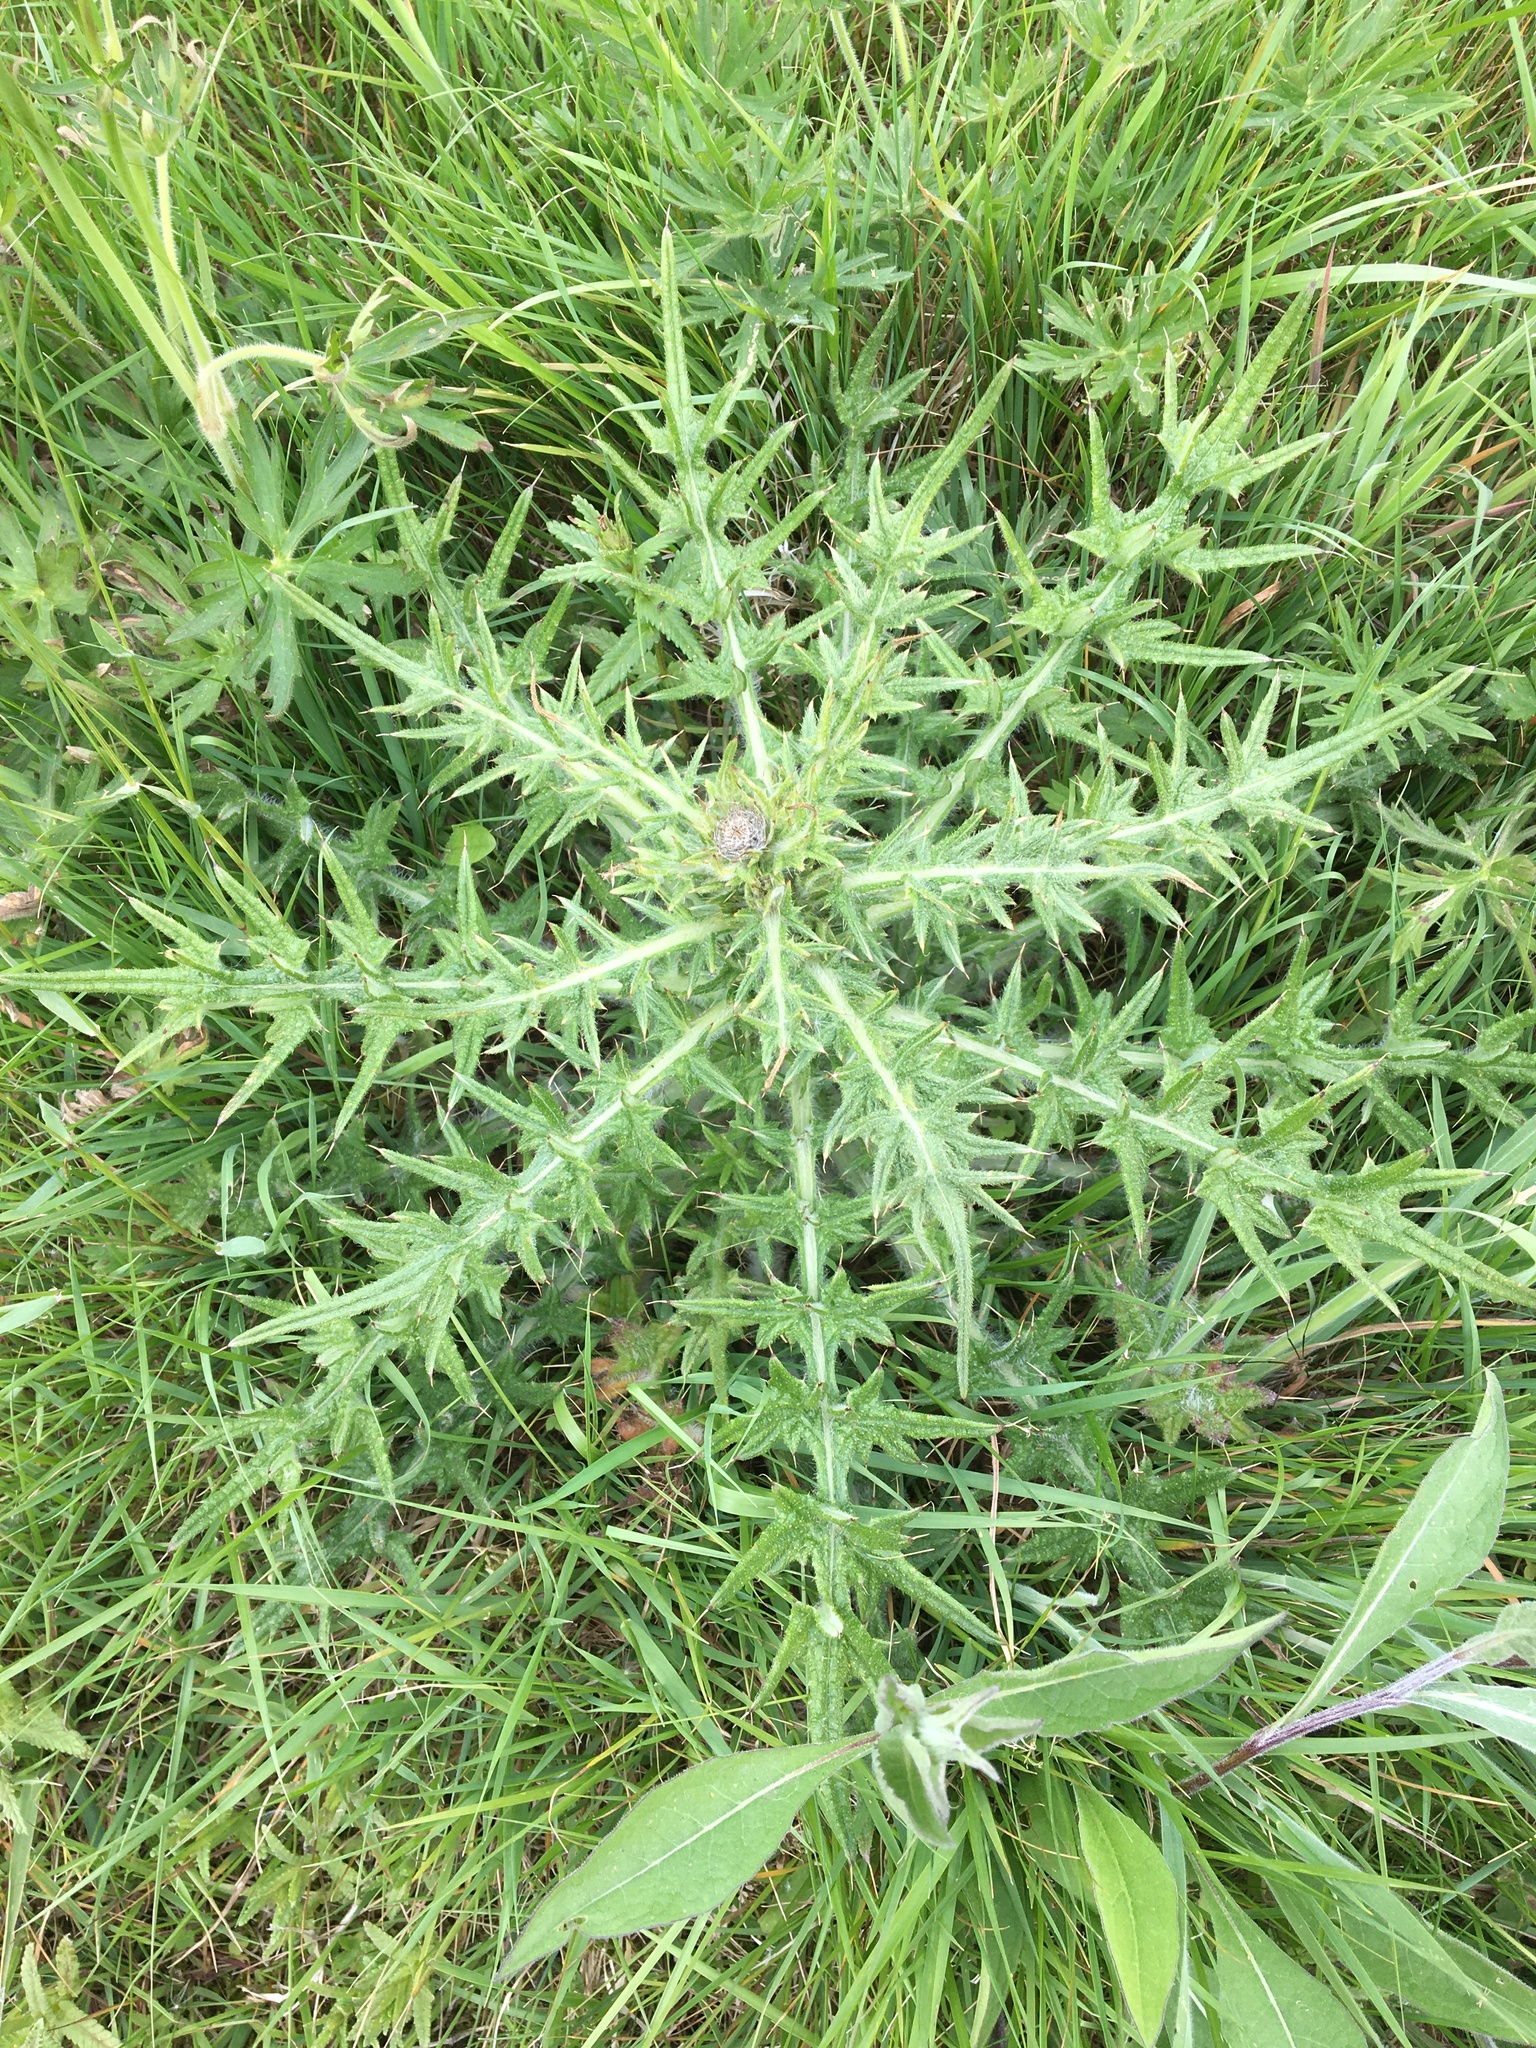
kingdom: Plantae
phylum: Tracheophyta
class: Magnoliopsida
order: Asterales
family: Asteraceae
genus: Cirsium
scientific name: Cirsium vulgare
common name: Bull thistle
